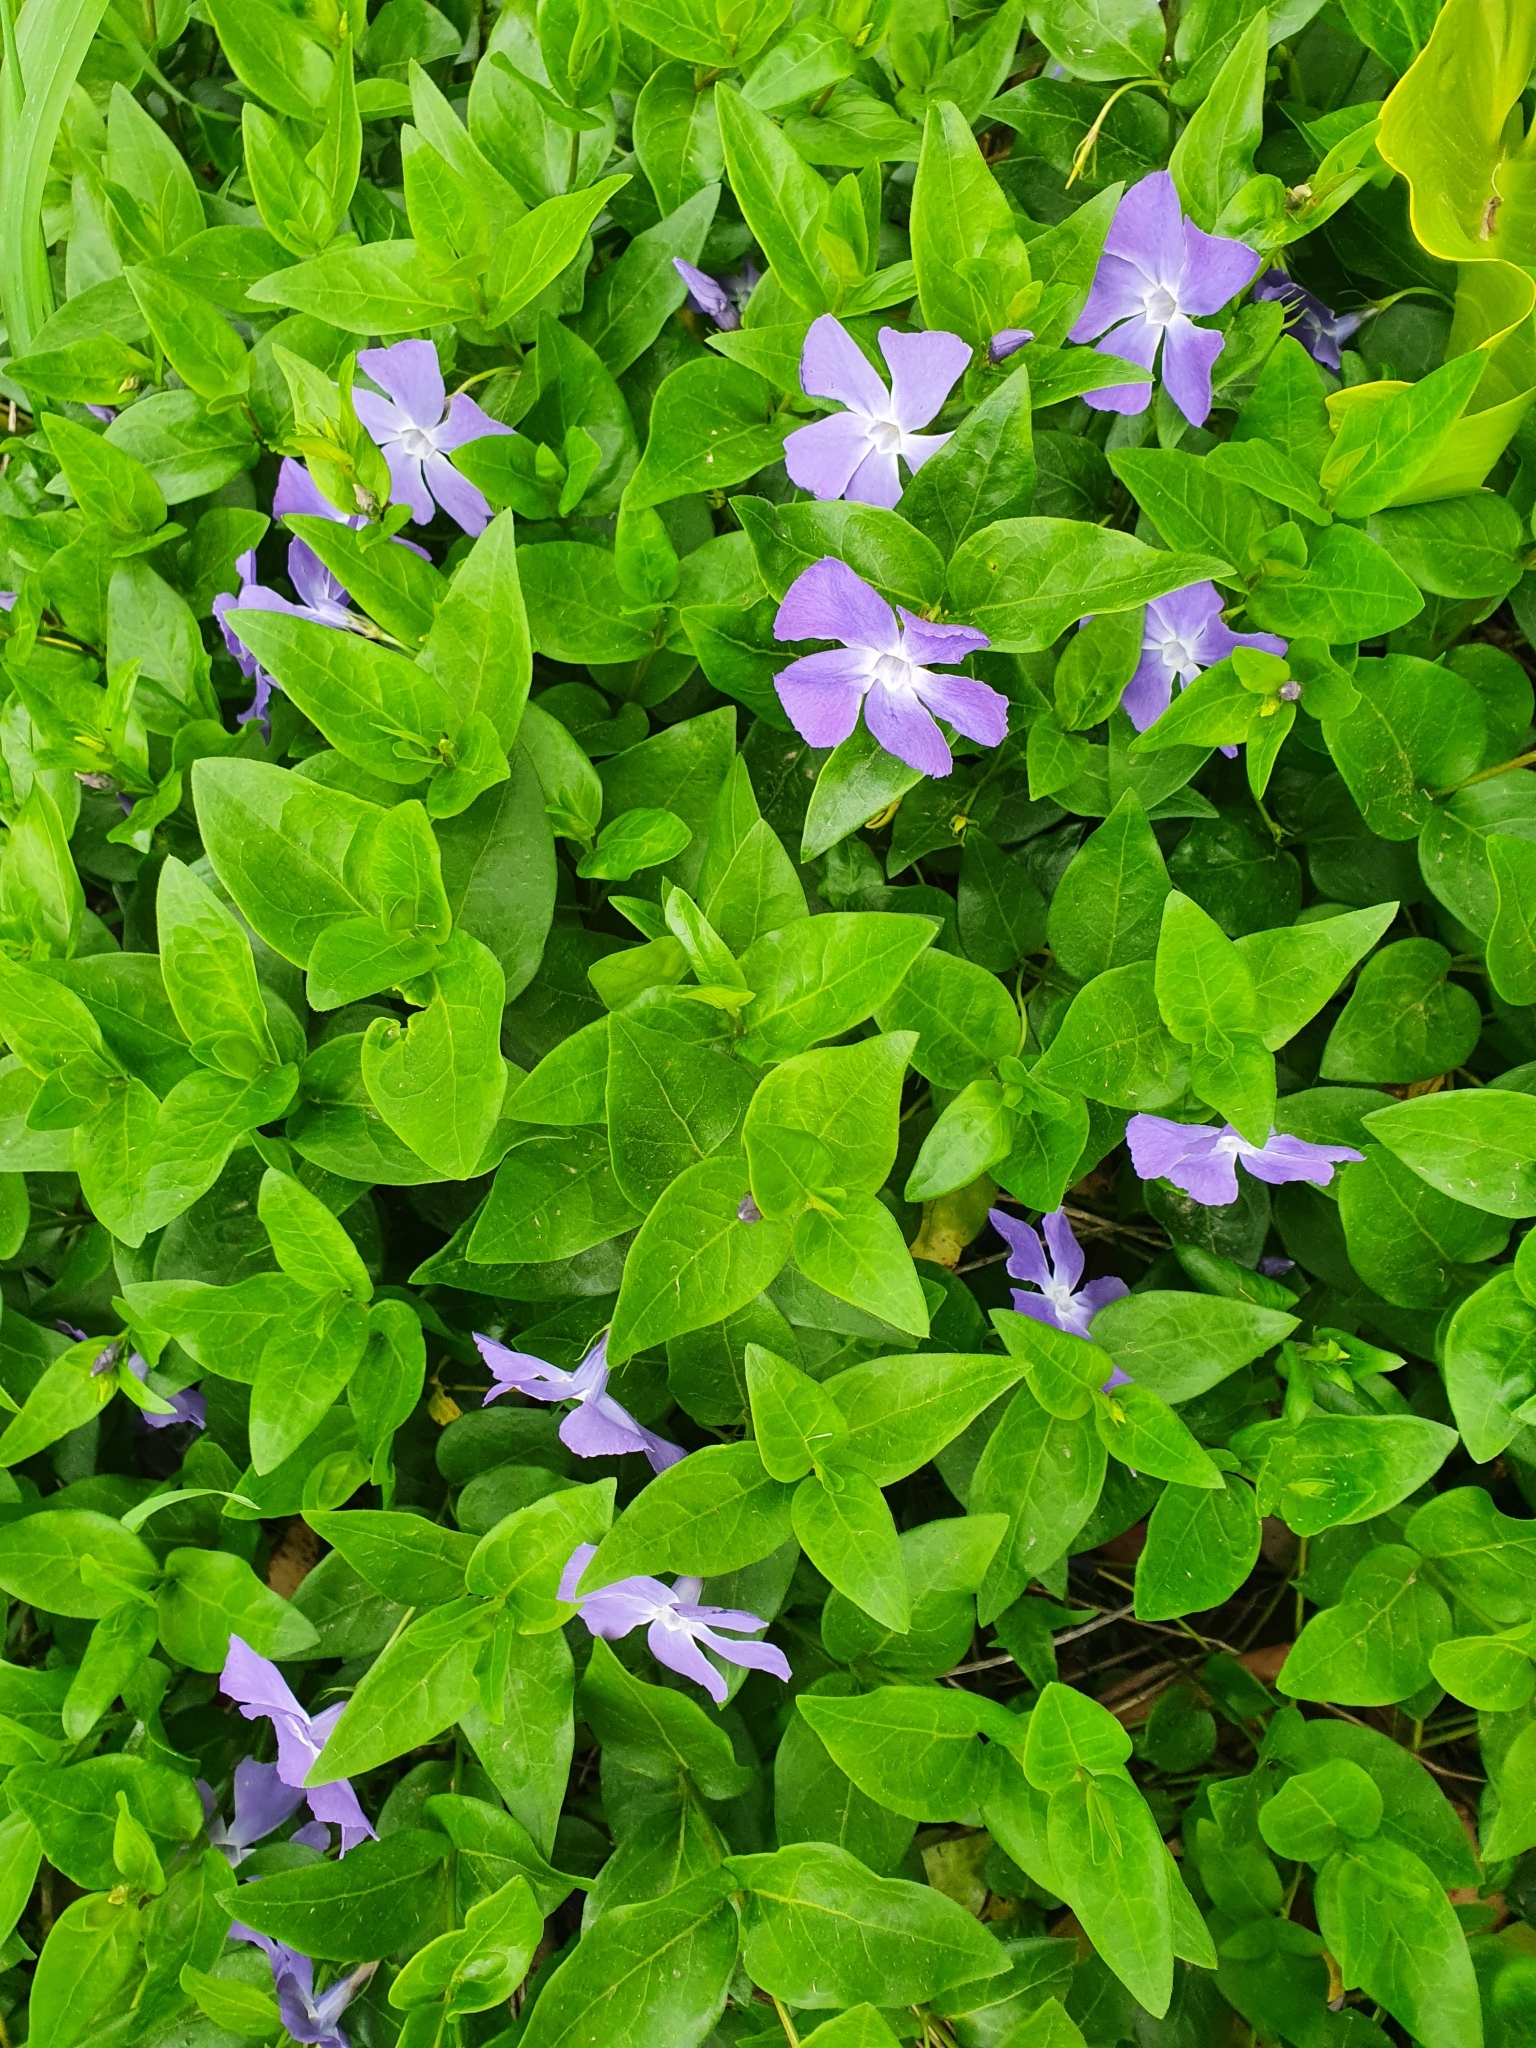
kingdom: Plantae
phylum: Tracheophyta
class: Magnoliopsida
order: Gentianales
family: Apocynaceae
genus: Vinca
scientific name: Vinca major
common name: Greater periwinkle
